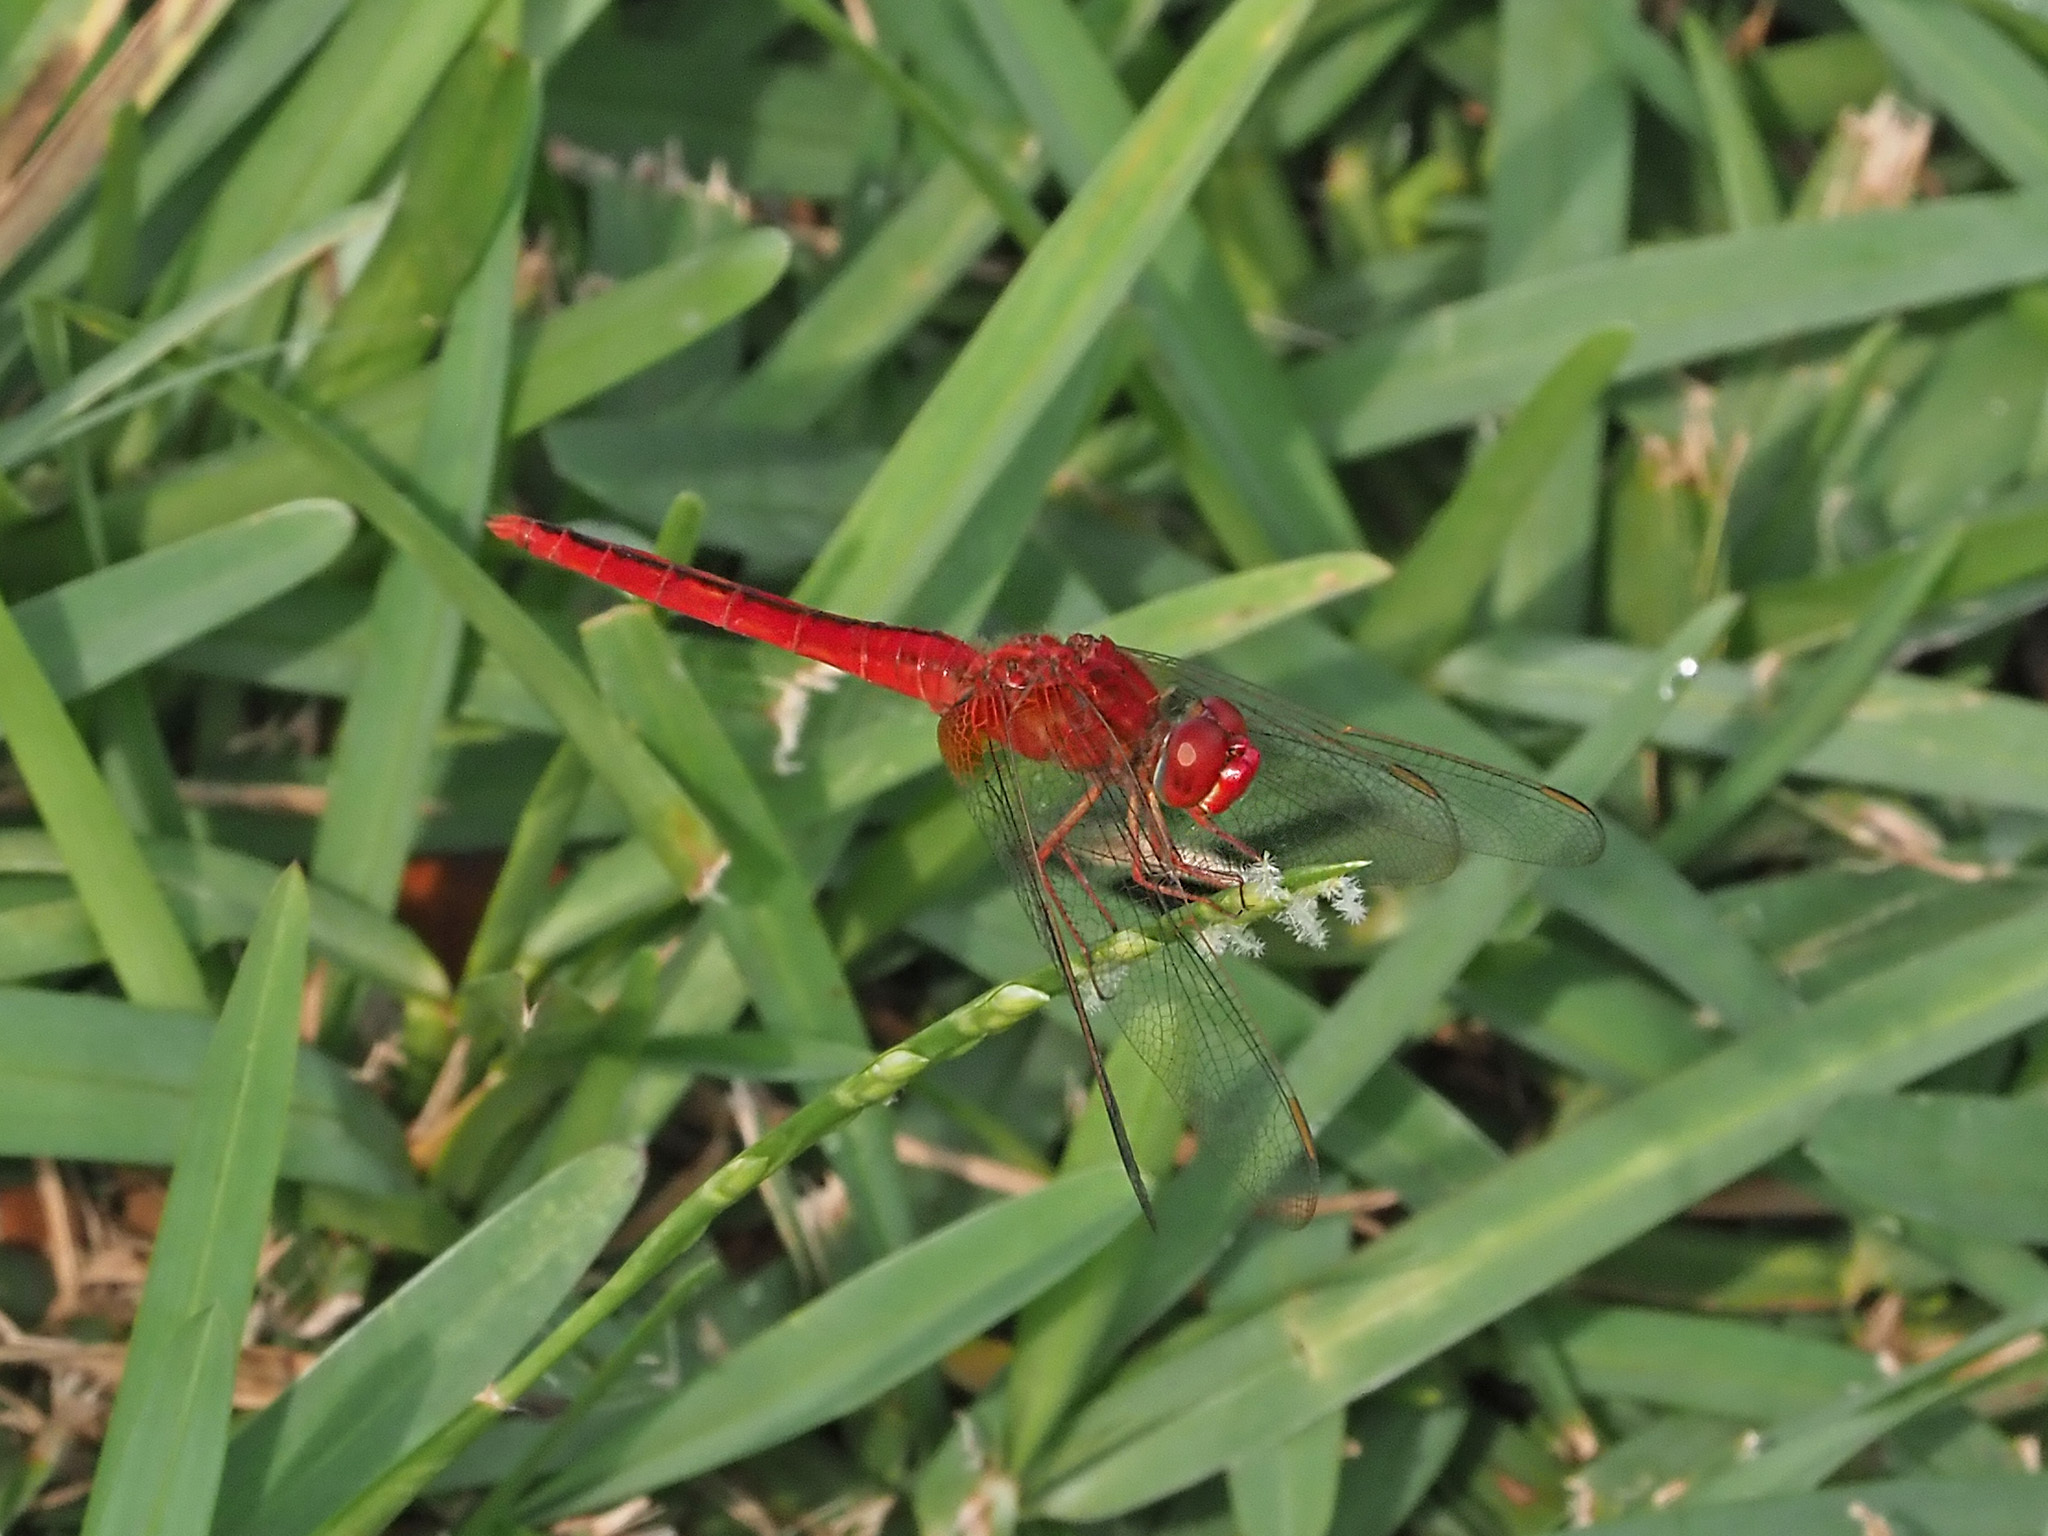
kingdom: Animalia
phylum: Arthropoda
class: Insecta
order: Odonata
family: Libellulidae
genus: Crocothemis
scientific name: Crocothemis servilia
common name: Scarlet skimmer
